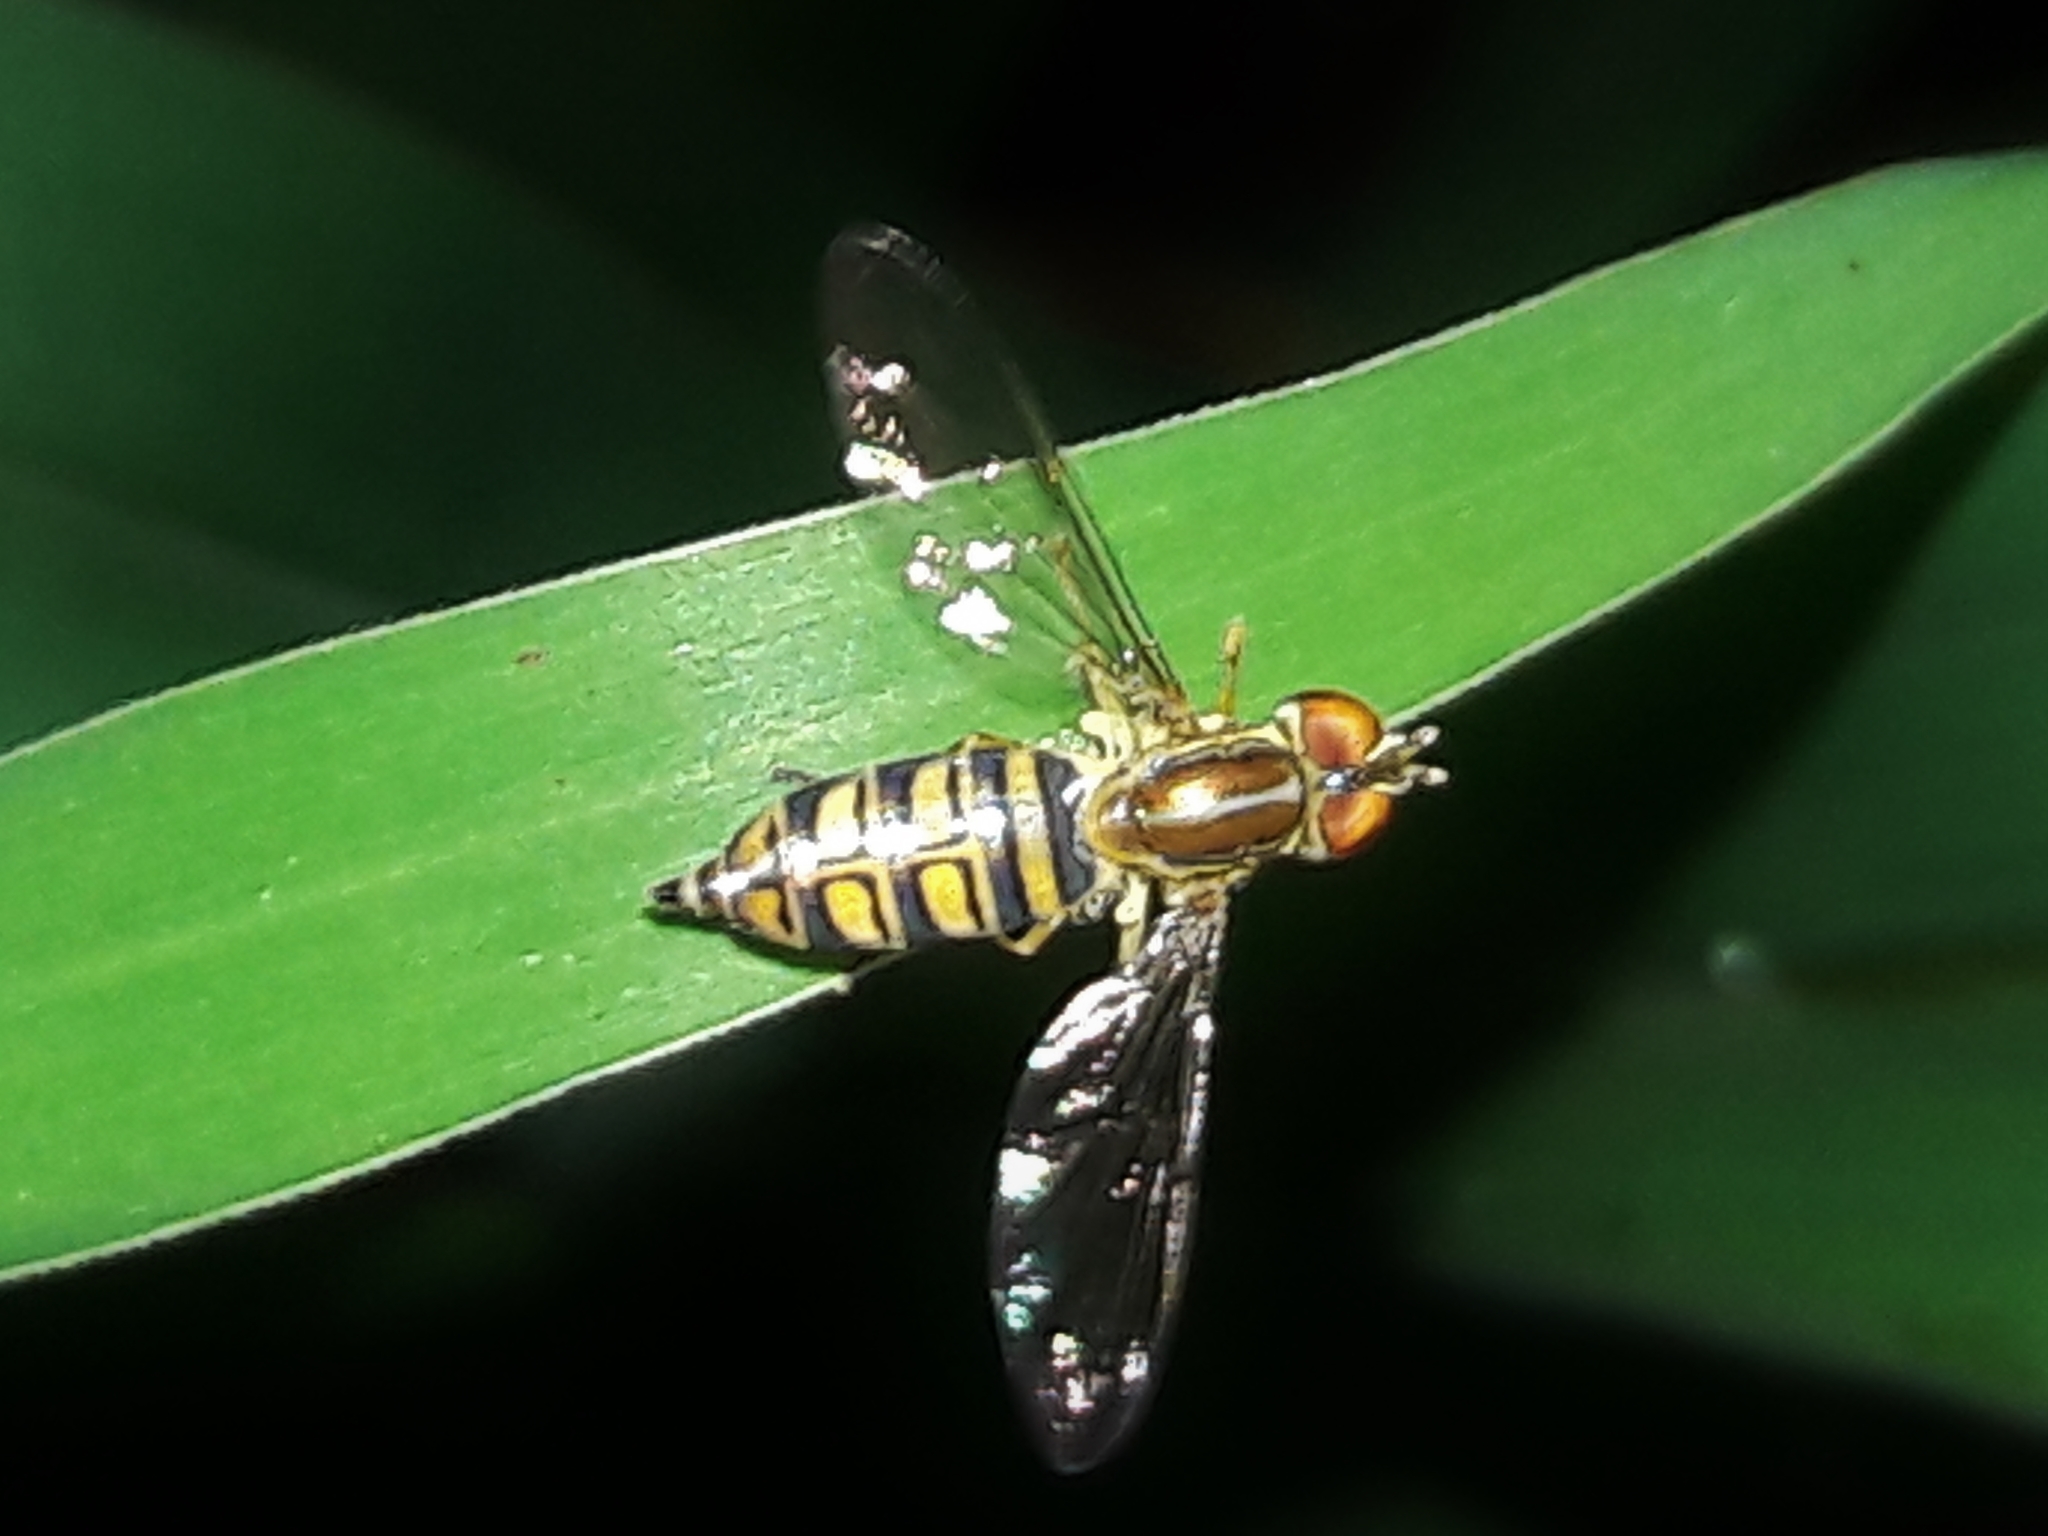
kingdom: Animalia
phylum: Arthropoda
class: Insecta
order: Diptera
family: Syrphidae
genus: Toxomerus
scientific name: Toxomerus politus
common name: Maize calligrapher
